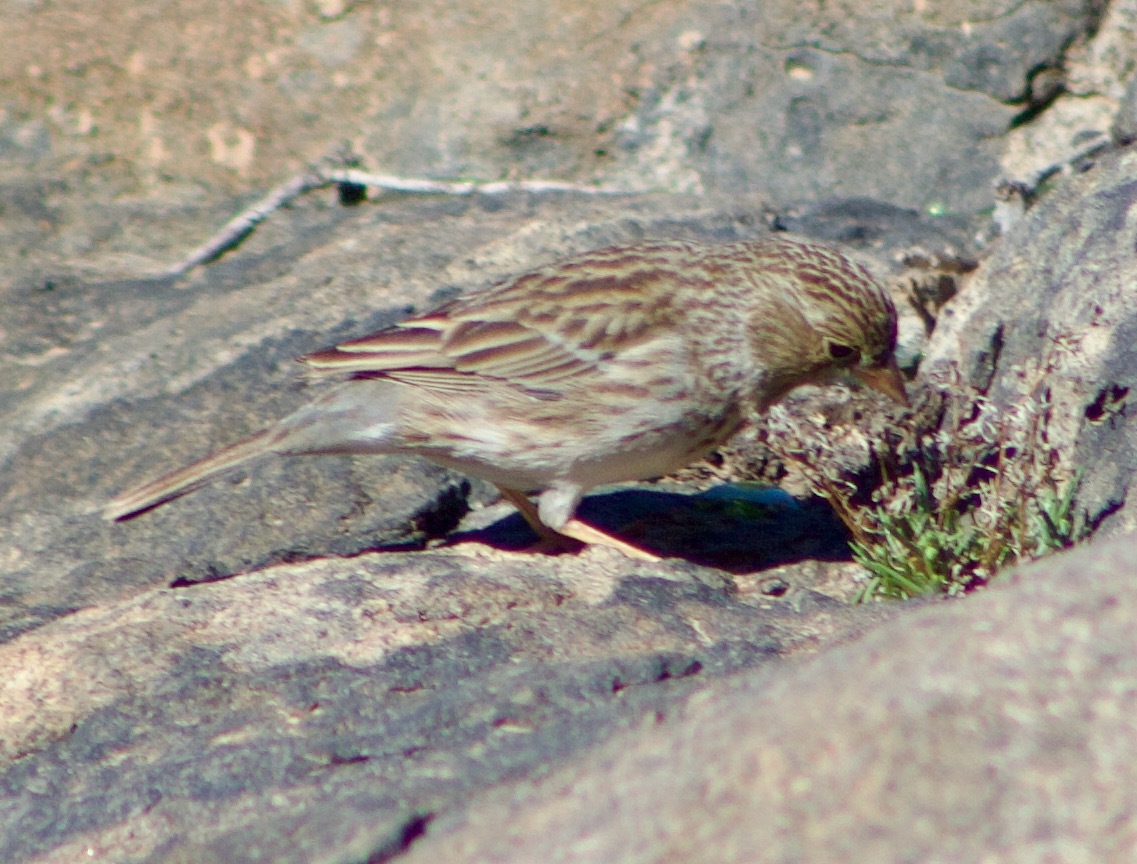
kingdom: Animalia
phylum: Chordata
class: Aves
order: Passeriformes
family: Thraupidae
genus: Porphyrospiza
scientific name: Porphyrospiza alaudina
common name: Band-tailed sierra finch
